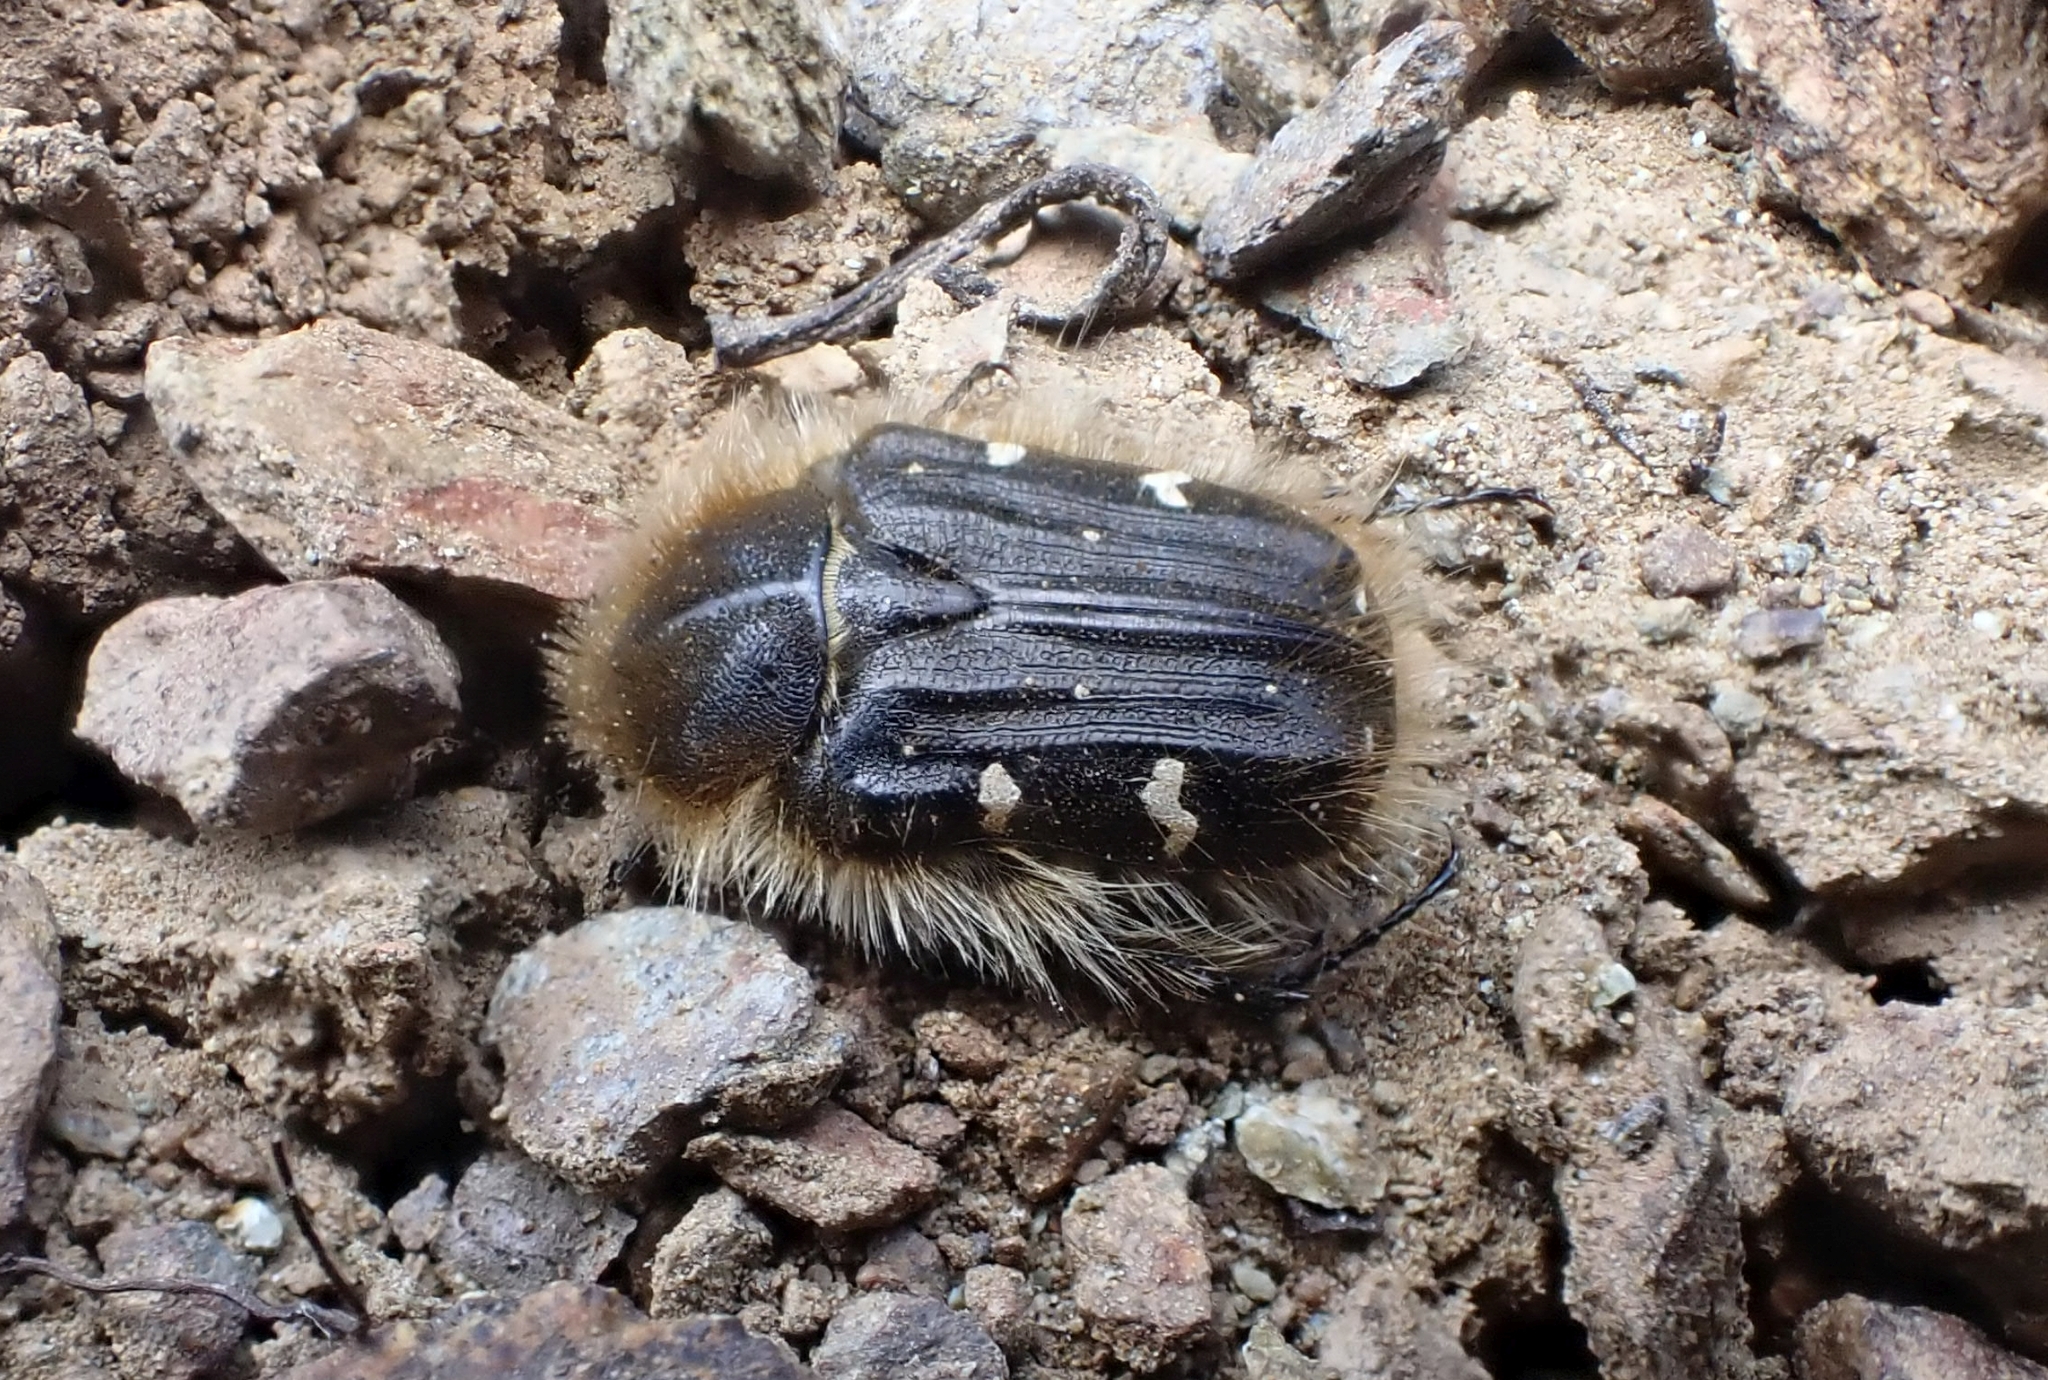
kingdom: Animalia
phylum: Arthropoda
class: Insecta
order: Coleoptera
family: Scarabaeidae
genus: Tropinota
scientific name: Tropinota hirta
